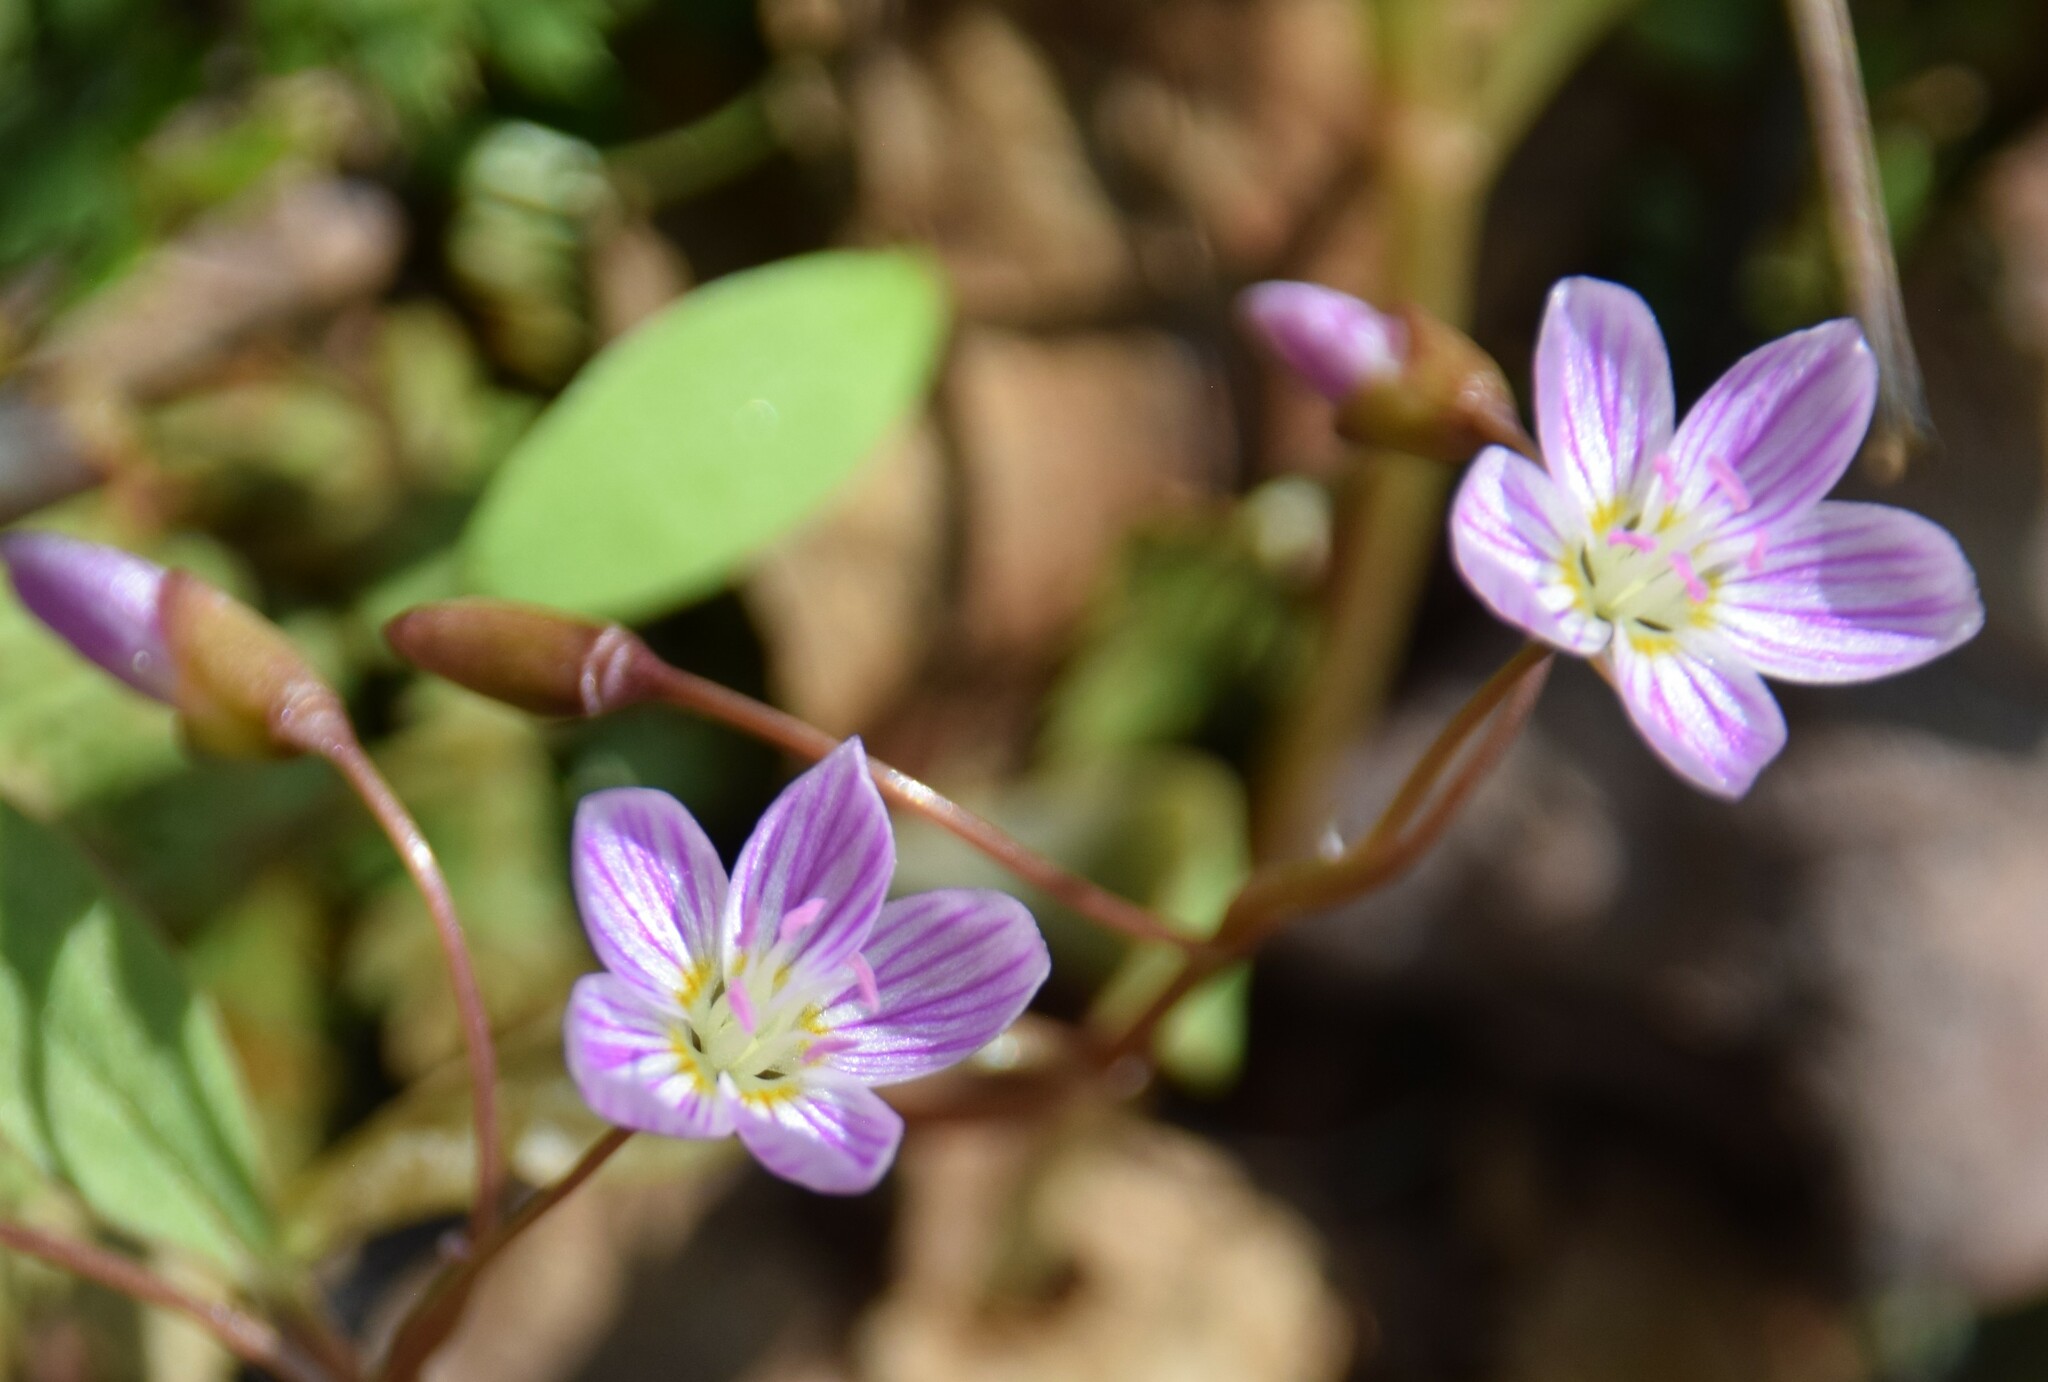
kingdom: Plantae
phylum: Tracheophyta
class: Magnoliopsida
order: Caryophyllales
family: Montiaceae
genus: Claytonia
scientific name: Claytonia caroliniana
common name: Carolina spring beauty
